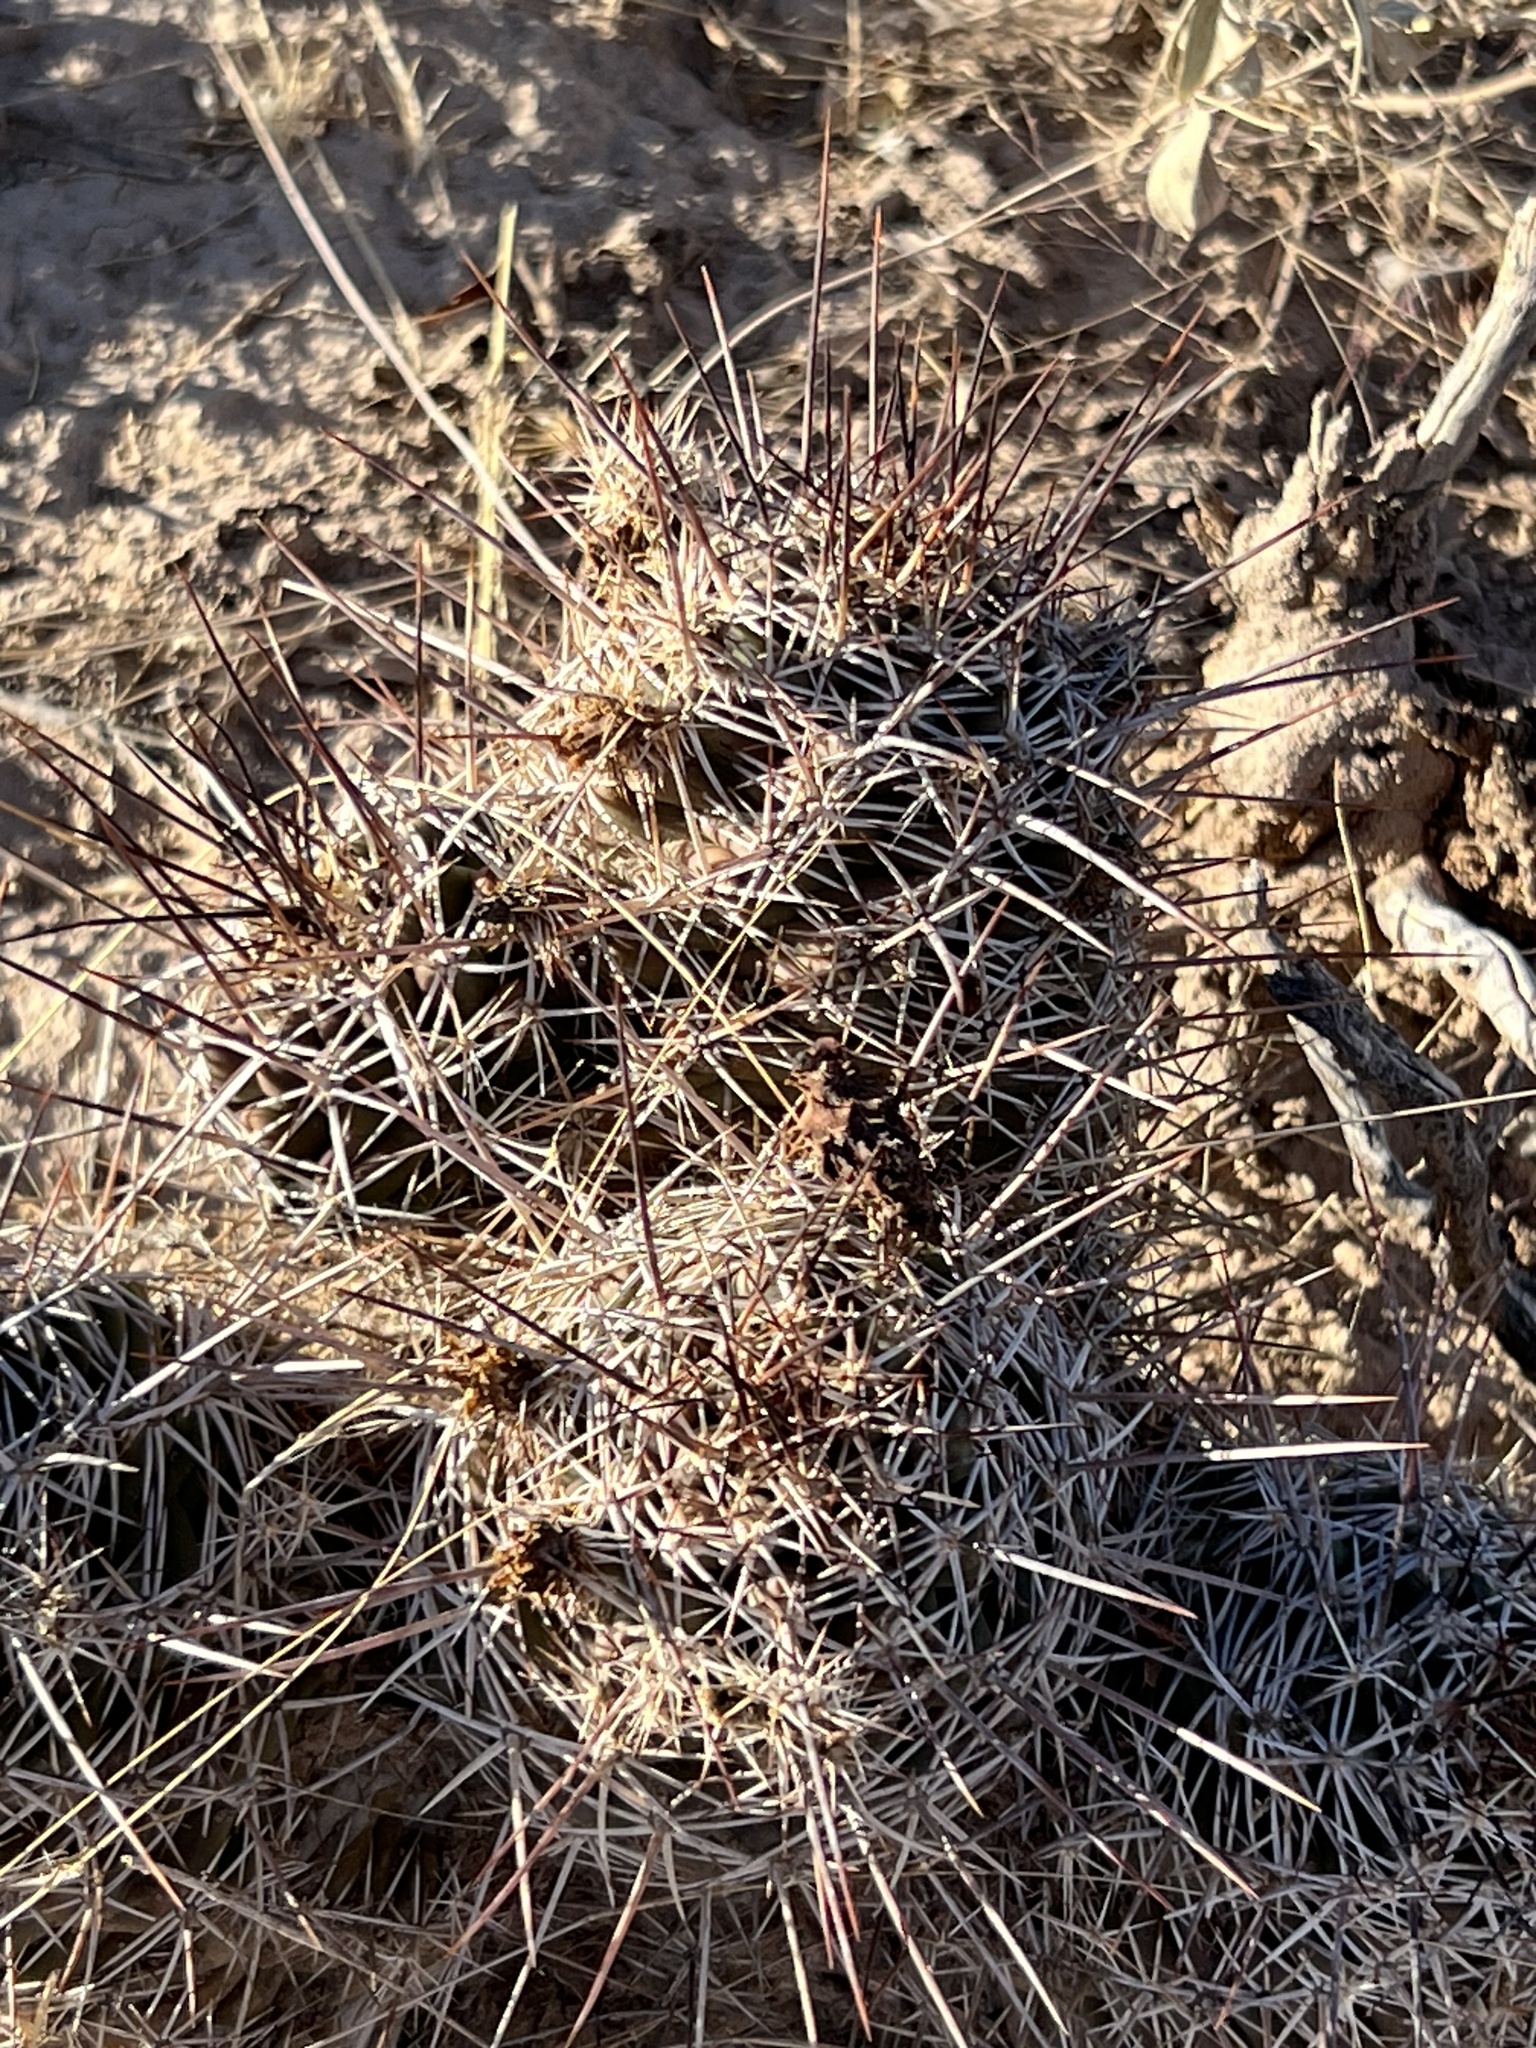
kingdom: Plantae
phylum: Tracheophyta
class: Magnoliopsida
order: Caryophyllales
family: Cactaceae
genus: Echinocereus
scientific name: Echinocereus fendleri
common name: Fendler's hedgehog cactus
